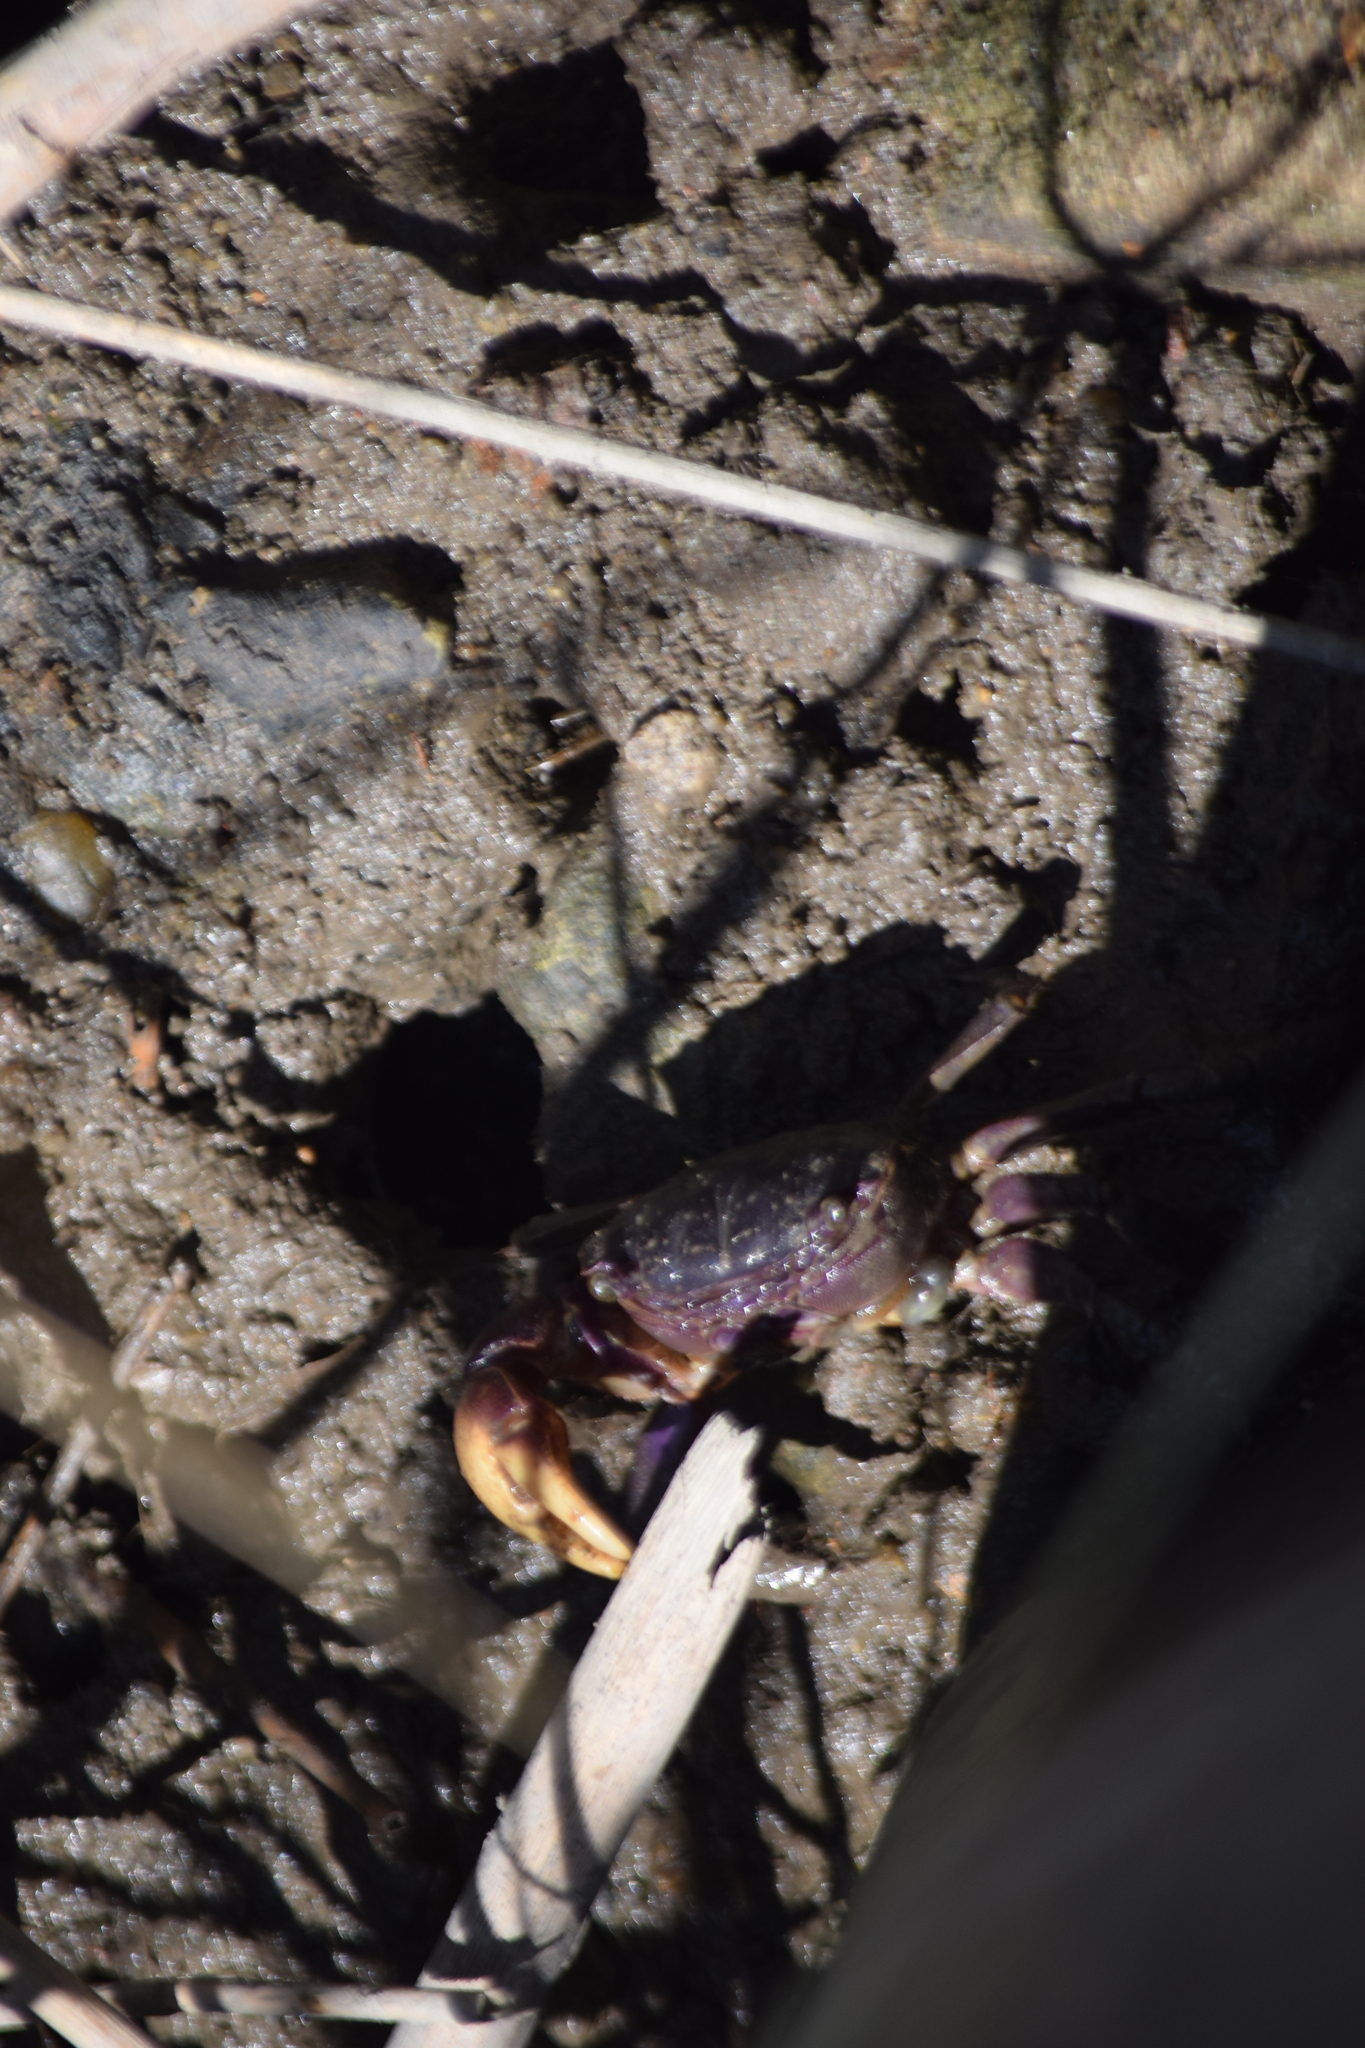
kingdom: Animalia
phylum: Arthropoda
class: Malacostraca
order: Decapoda
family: Sesarmidae
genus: Sesarma
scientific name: Sesarma reticulatum
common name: Heavy marsh crab
